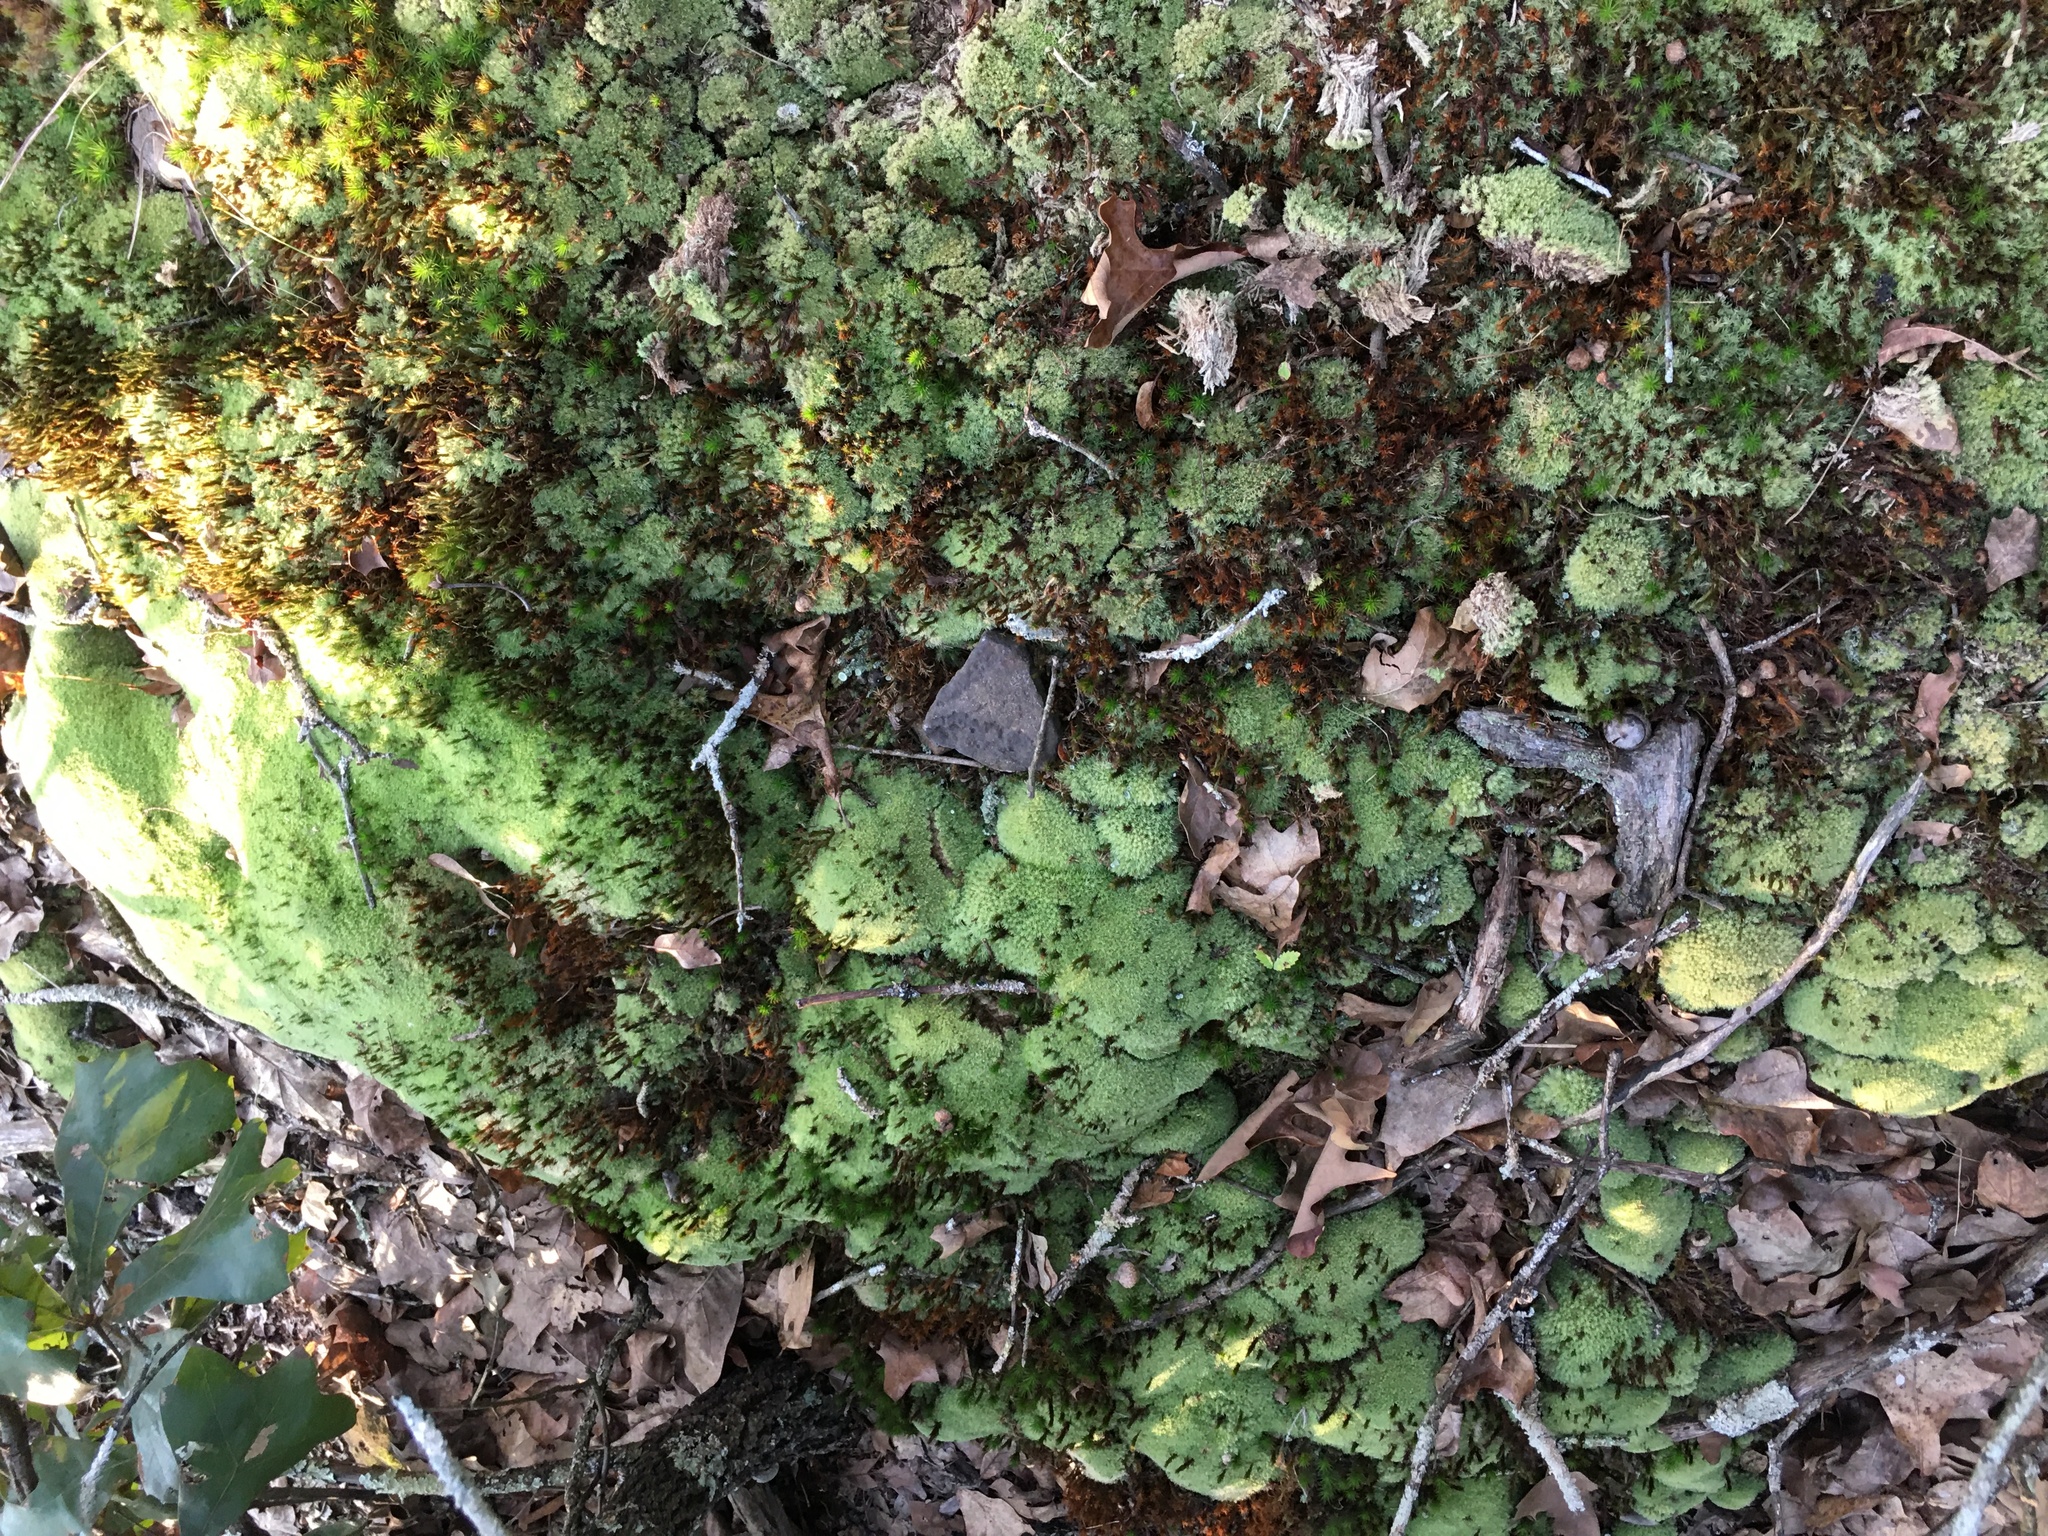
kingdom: Plantae
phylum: Bryophyta
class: Bryopsida
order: Dicranales
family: Leucobryaceae
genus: Leucobryum
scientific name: Leucobryum glaucum
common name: Large white-moss
